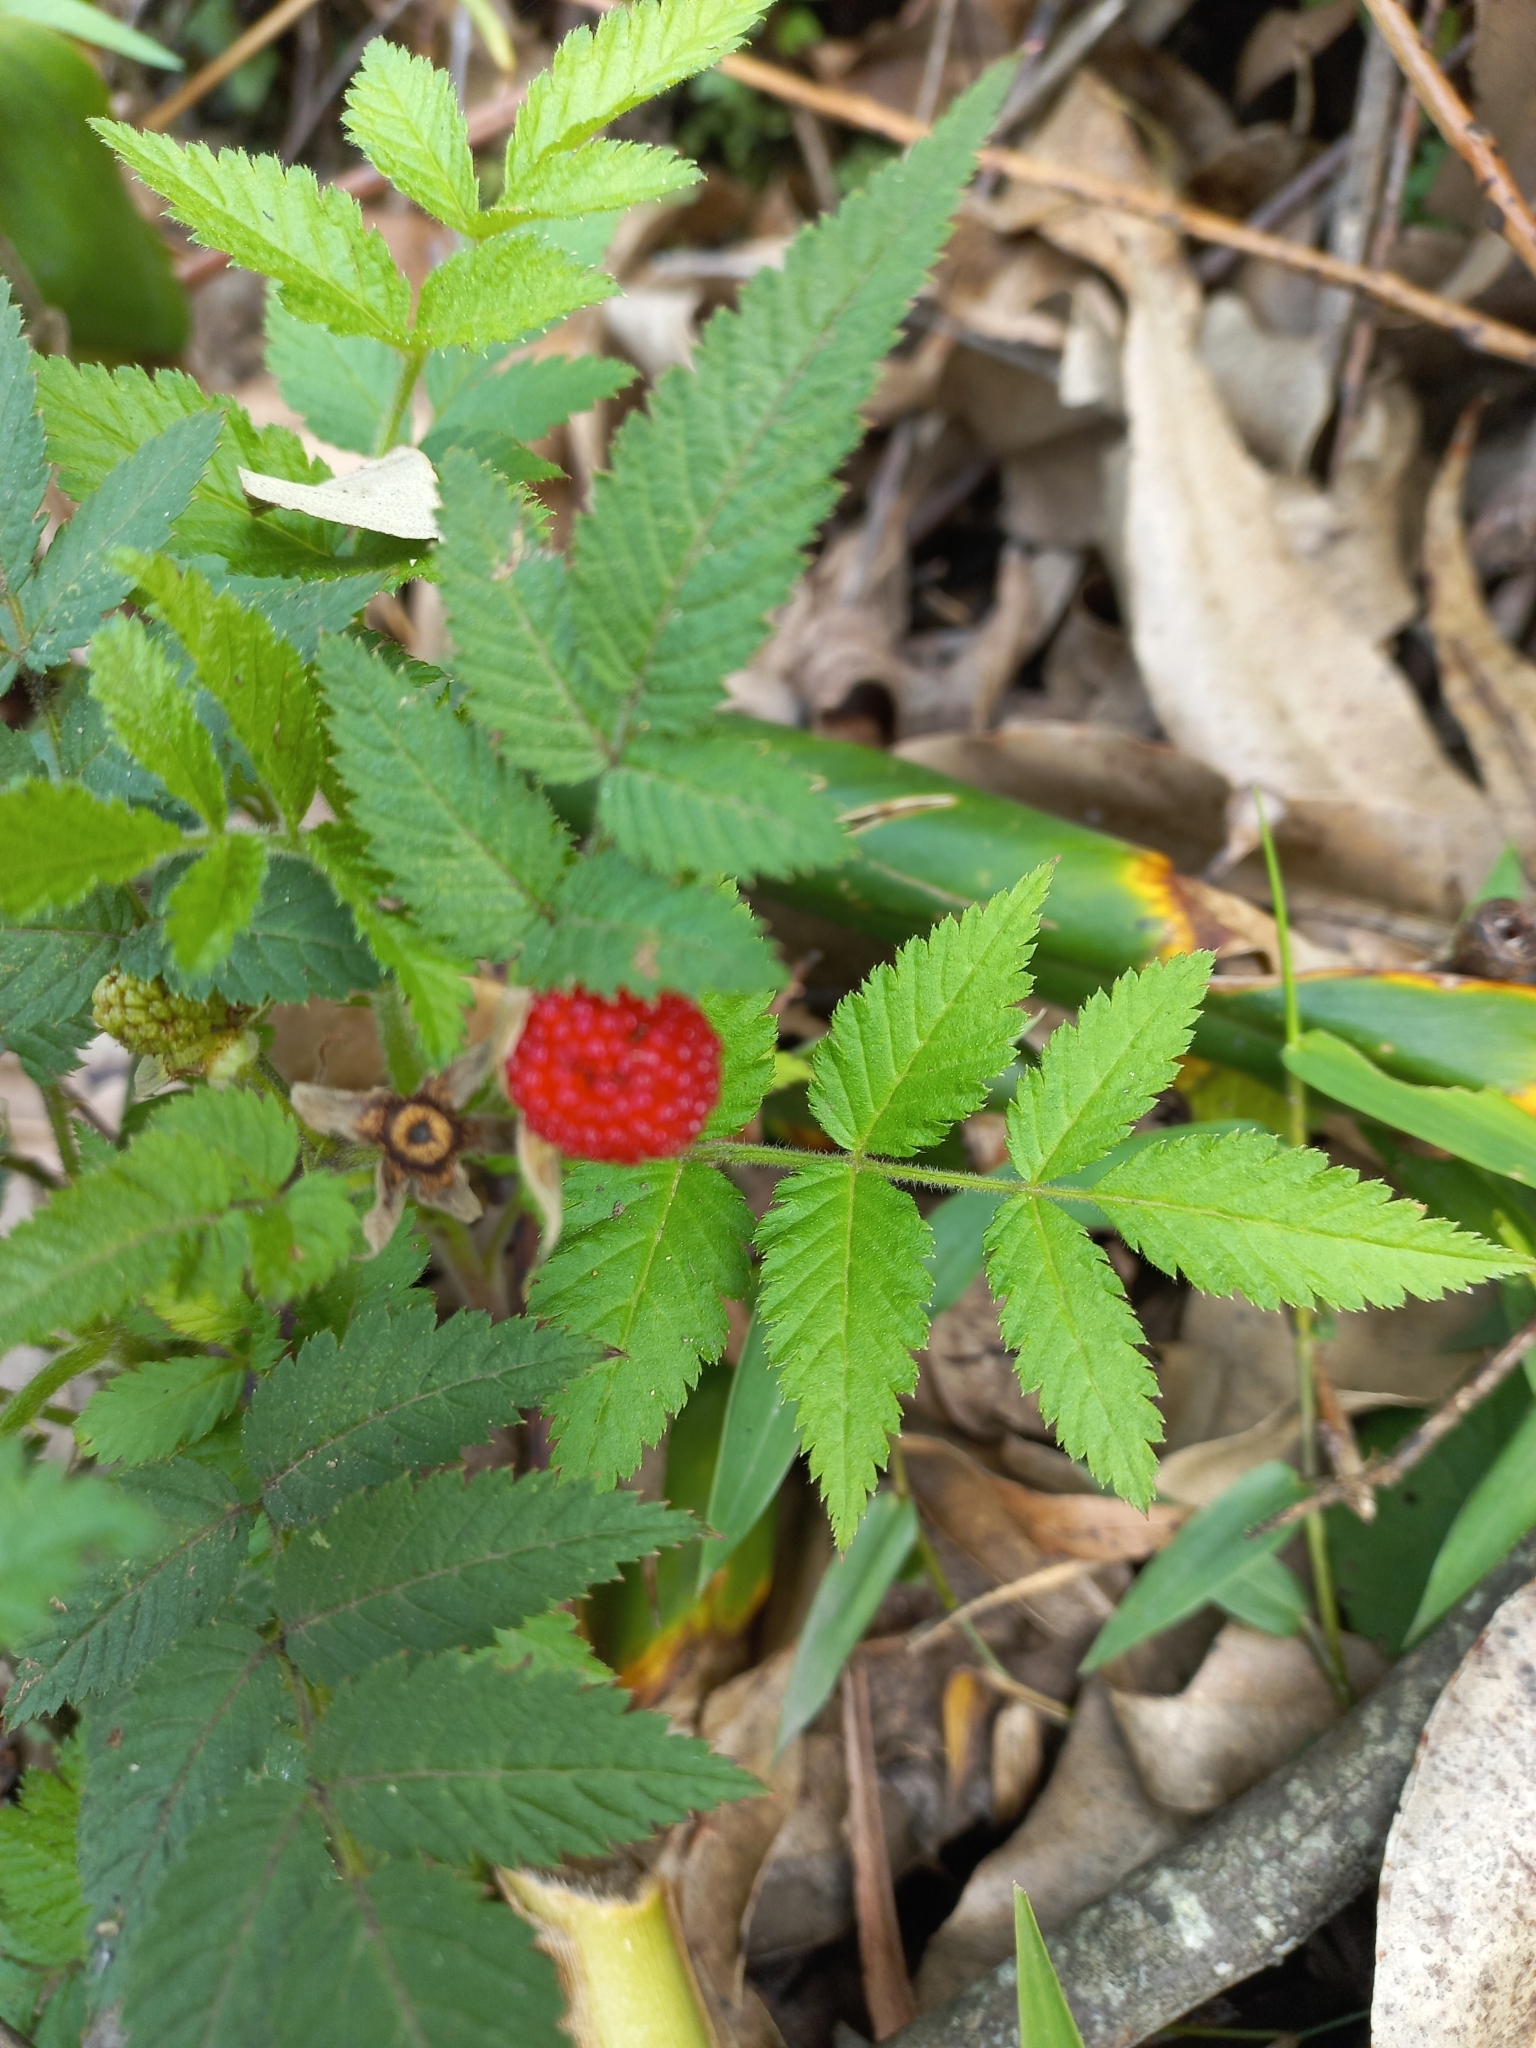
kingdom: Plantae
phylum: Tracheophyta
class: Magnoliopsida
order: Rosales
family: Rosaceae
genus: Rubus
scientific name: Rubus rosifolius
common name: Roseleaf raspberry
